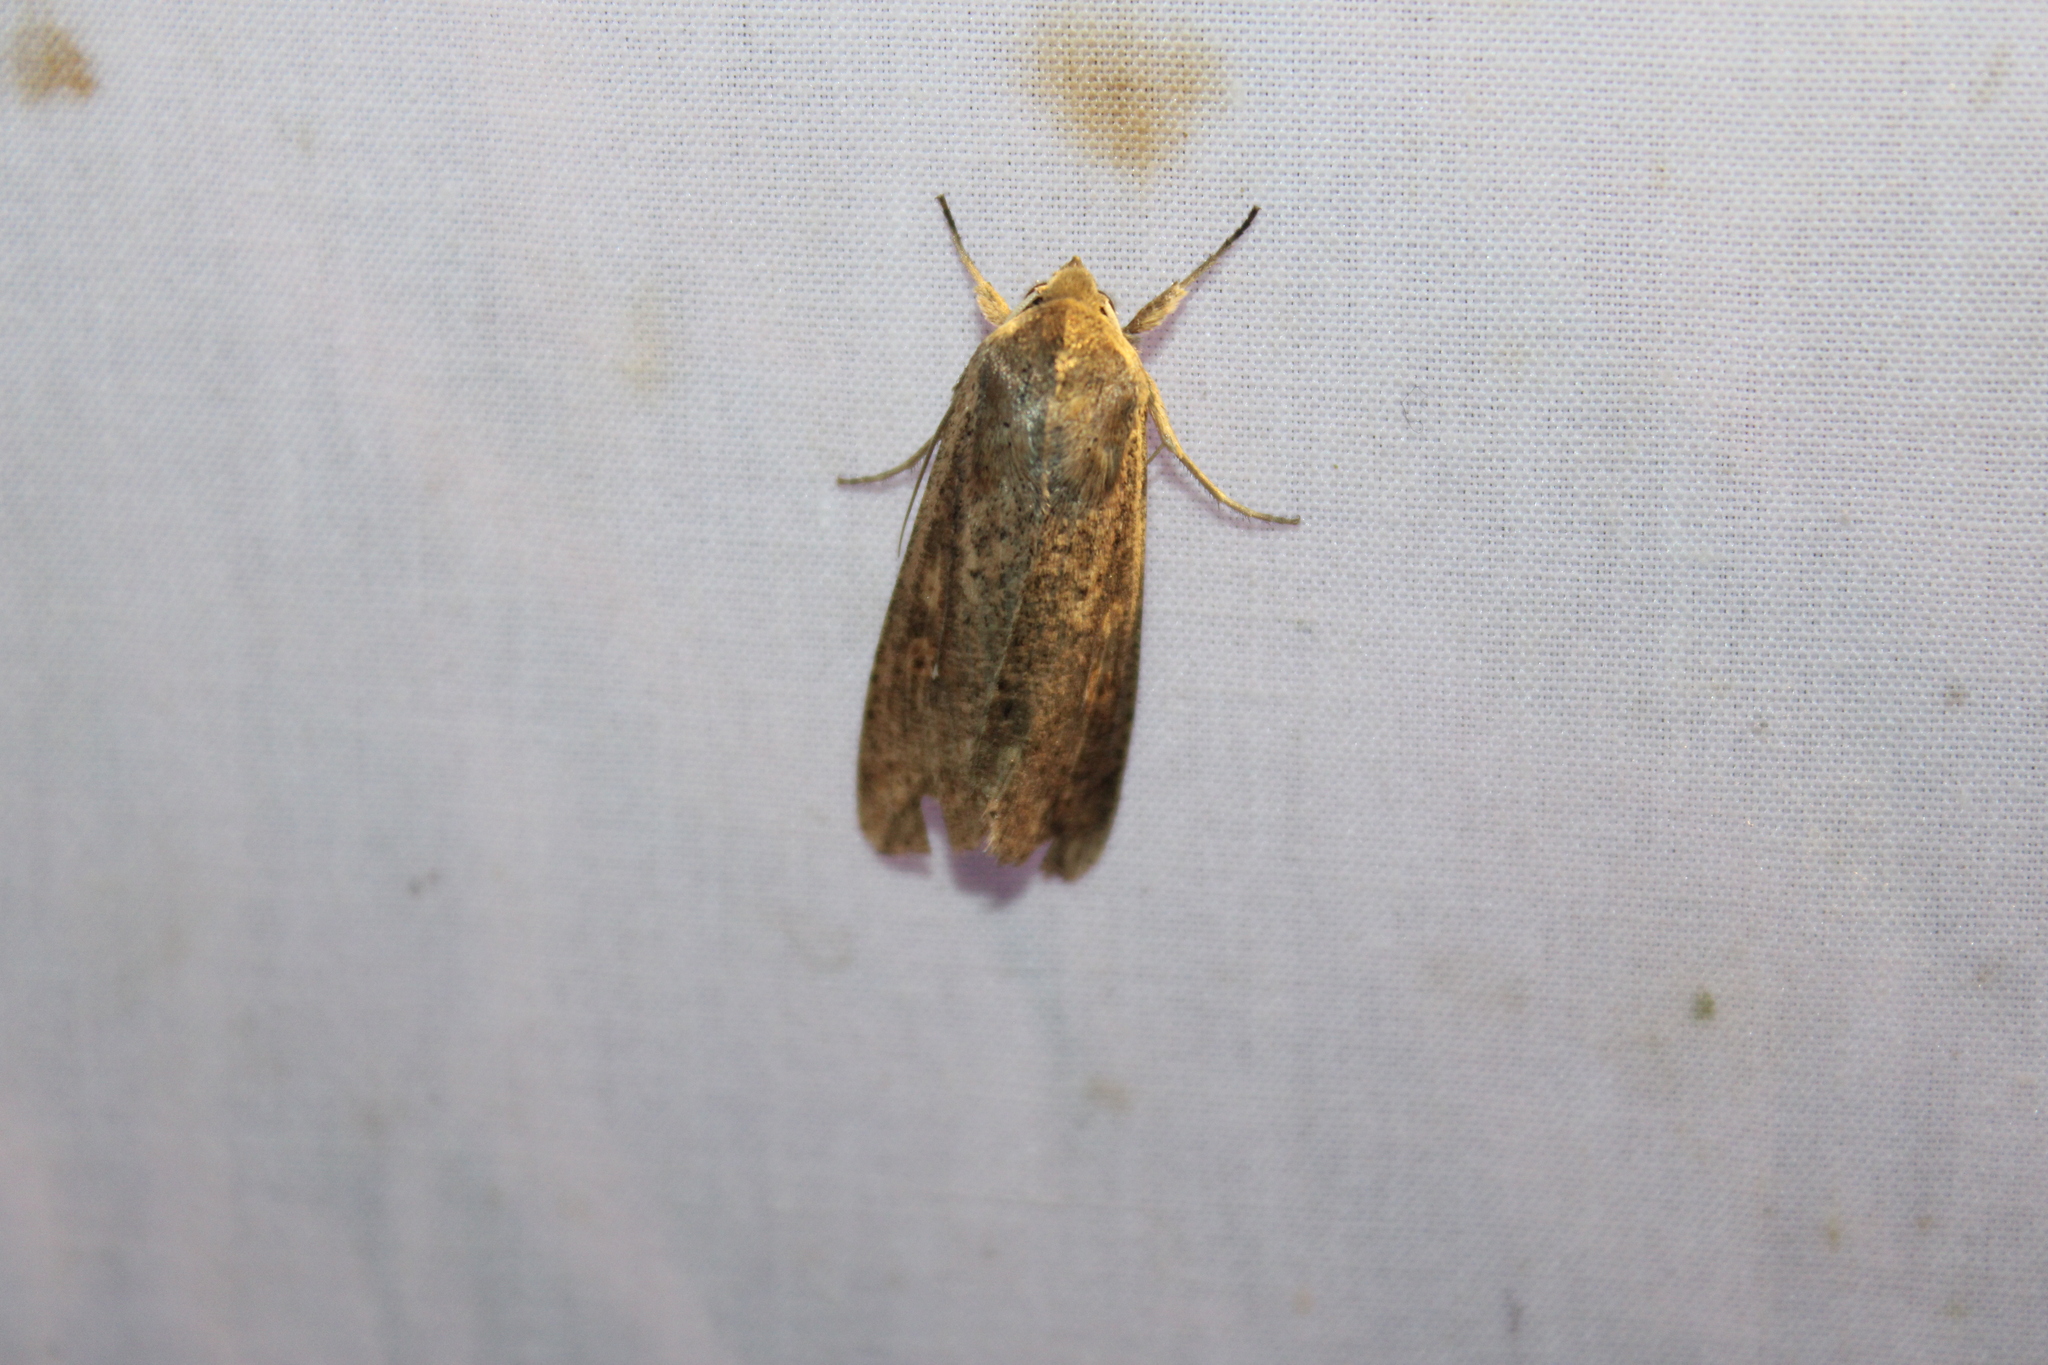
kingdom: Animalia
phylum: Arthropoda
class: Insecta
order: Lepidoptera
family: Noctuidae
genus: Mythimna
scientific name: Mythimna unipuncta
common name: White-speck
